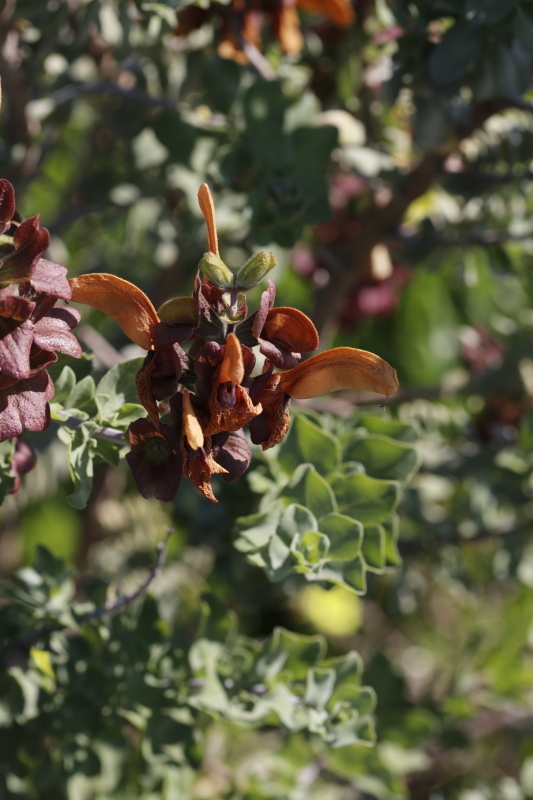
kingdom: Plantae
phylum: Tracheophyta
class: Magnoliopsida
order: Lamiales
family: Lamiaceae
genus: Salvia
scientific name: Salvia aurea
